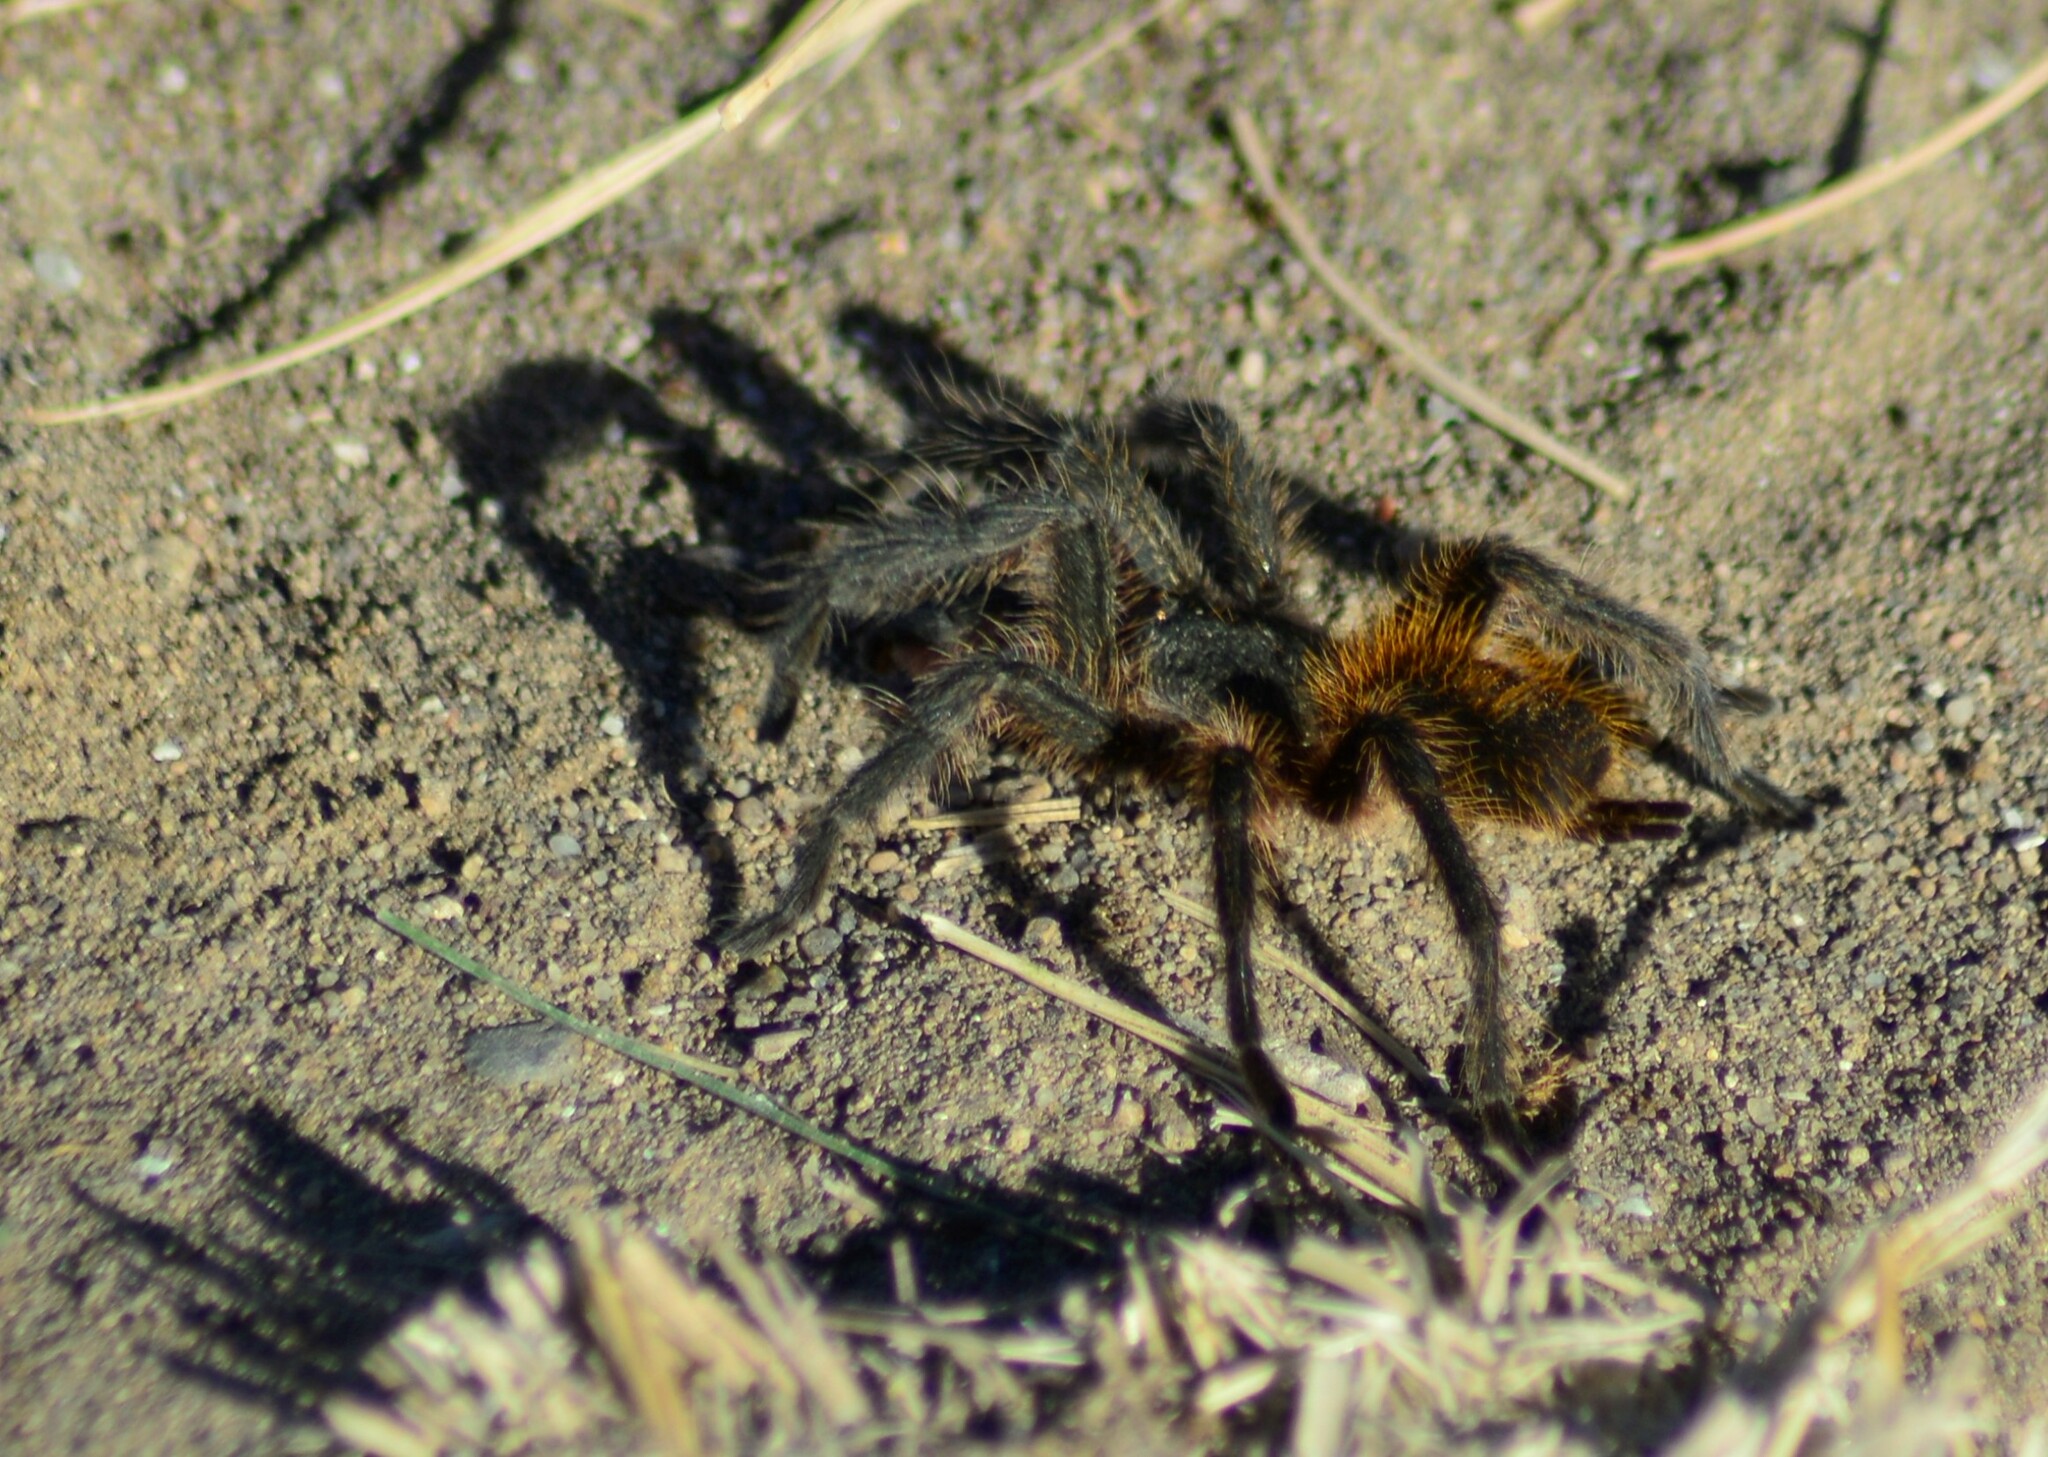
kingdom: Animalia
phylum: Arthropoda
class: Arachnida
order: Araneae
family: Theraphosidae
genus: Plesiopelma
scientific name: Plesiopelma longisternale
